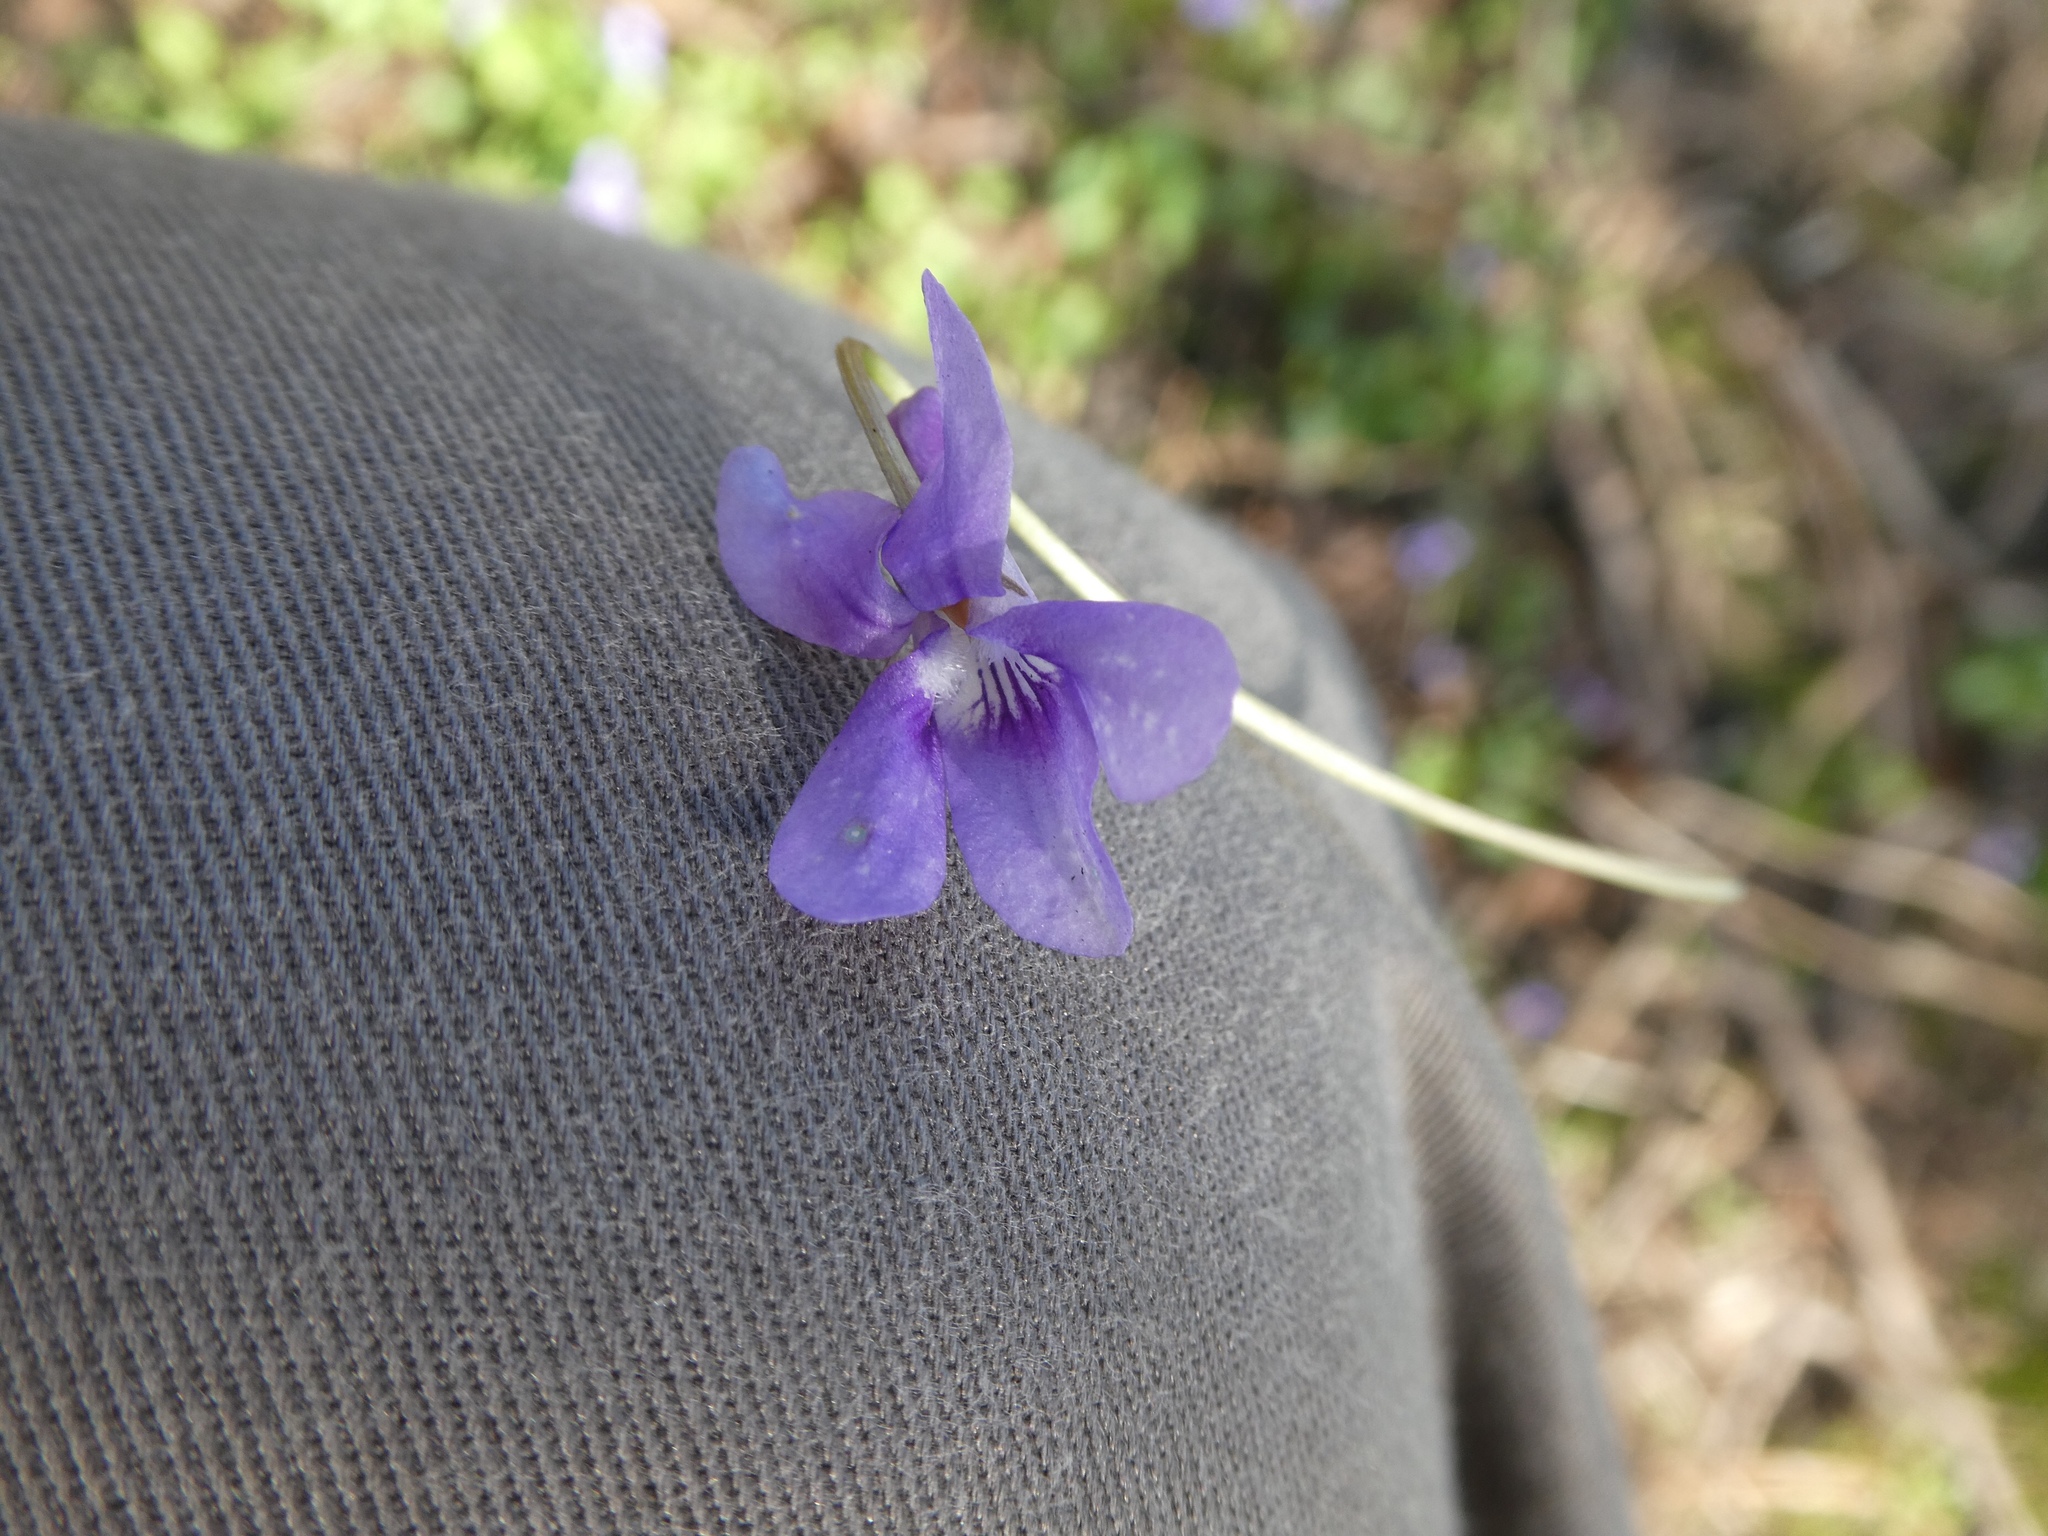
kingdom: Plantae
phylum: Tracheophyta
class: Magnoliopsida
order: Malpighiales
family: Violaceae
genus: Viola
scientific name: Viola reichenbachiana
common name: Early dog-violet
